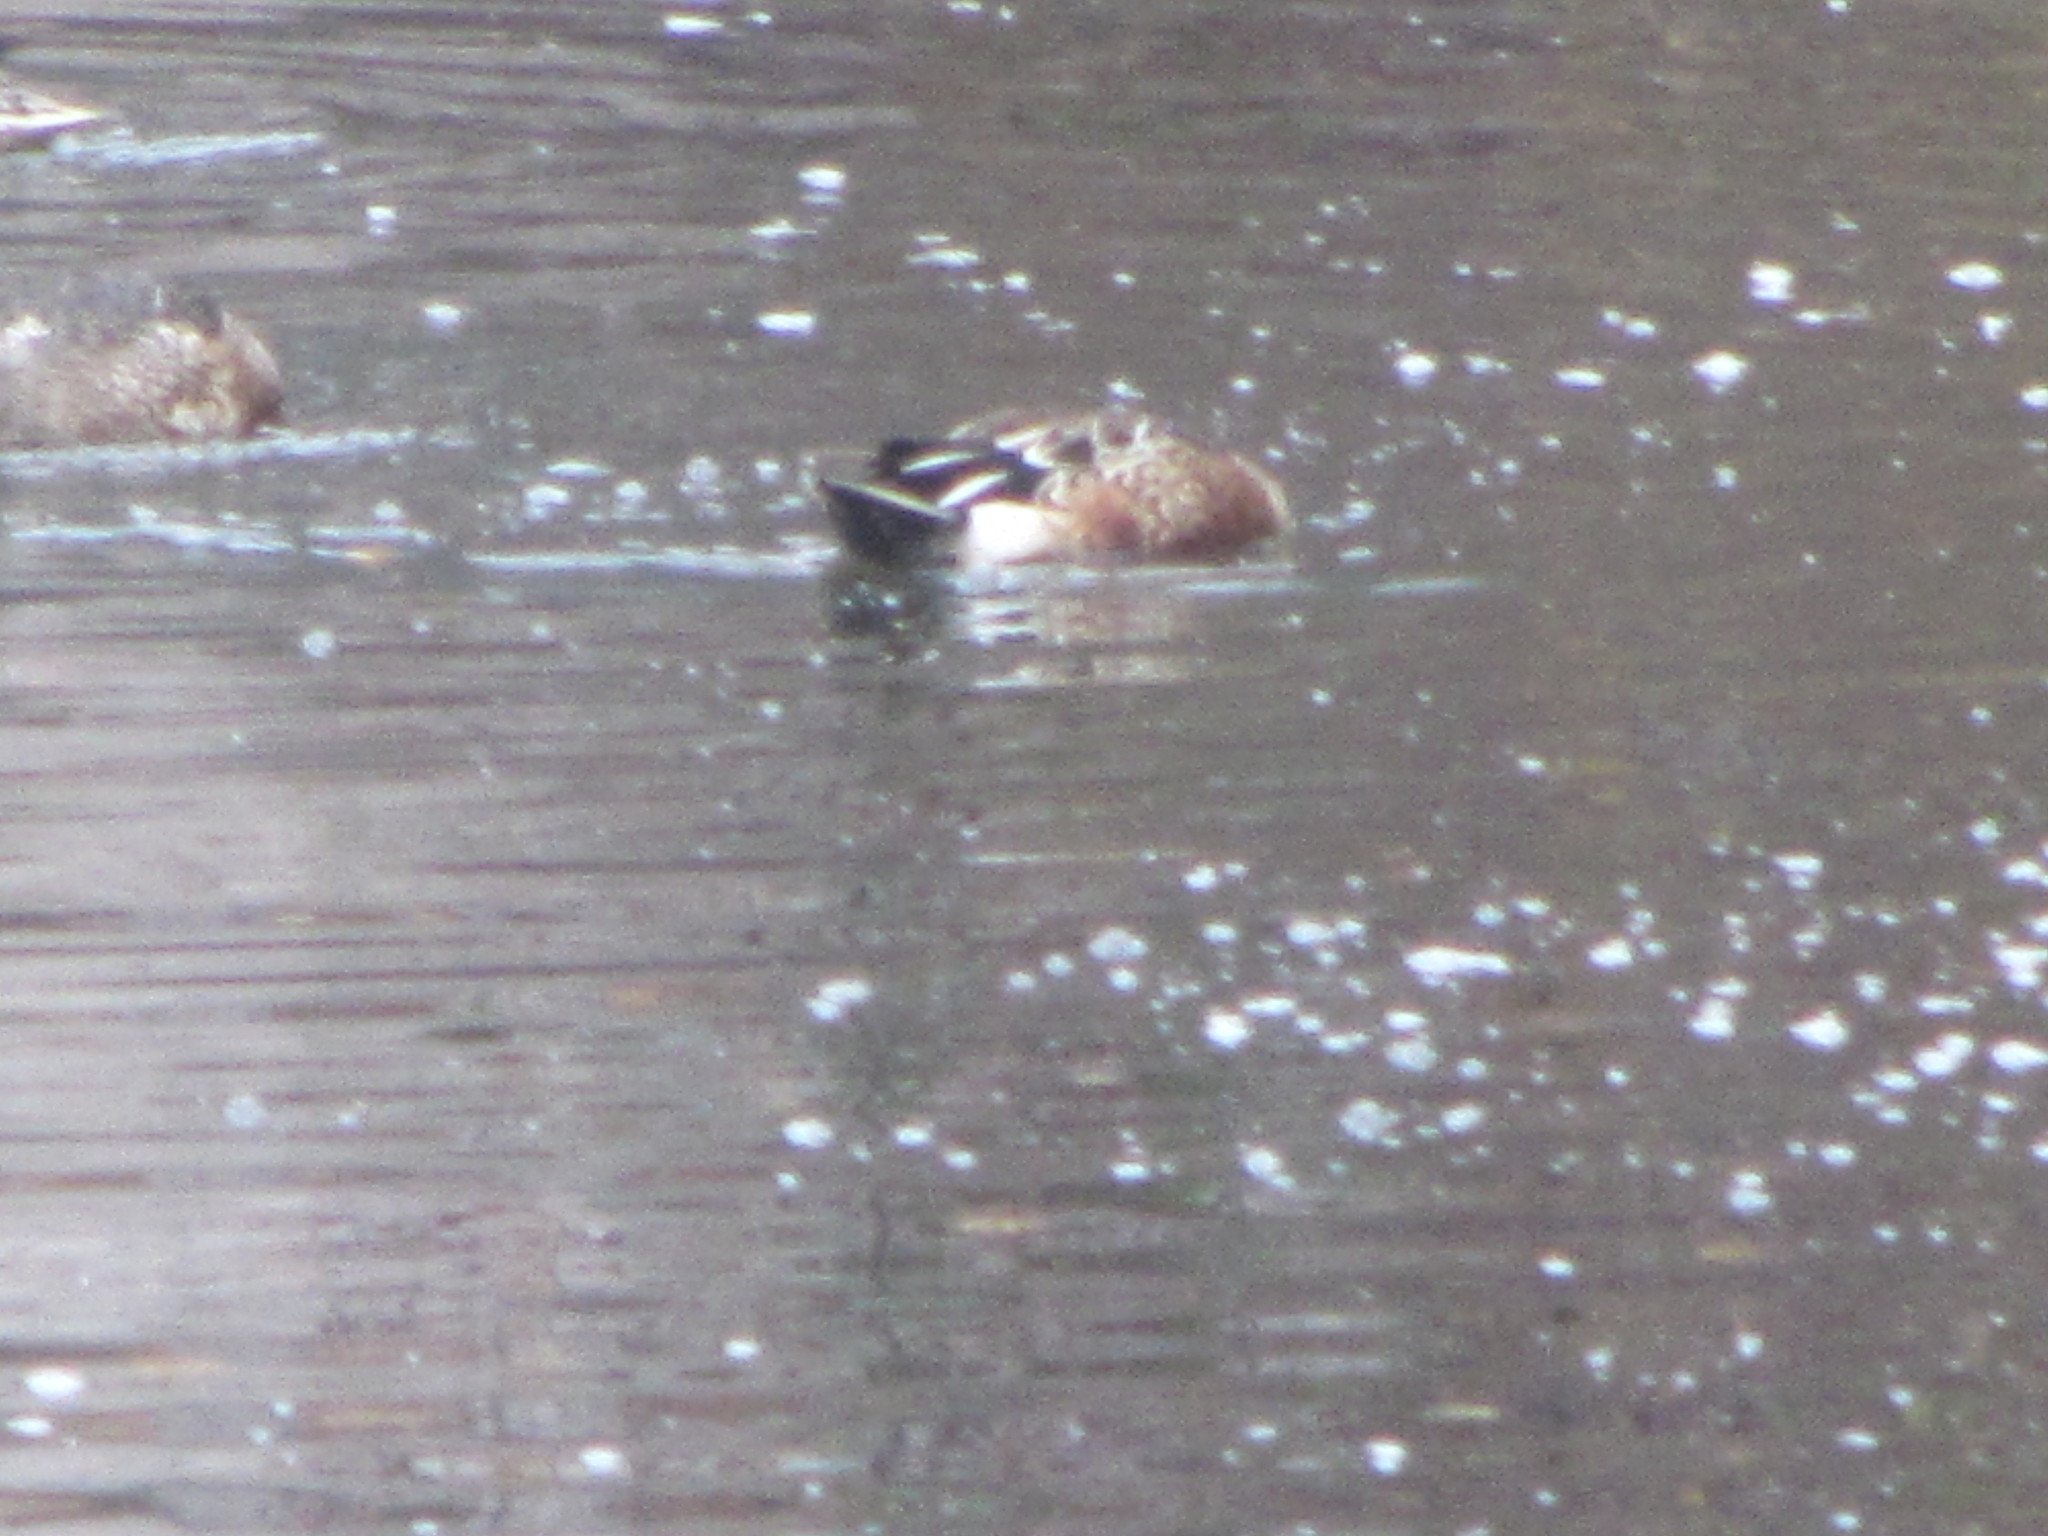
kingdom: Animalia
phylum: Chordata
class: Aves
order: Anseriformes
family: Anatidae
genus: Spatula
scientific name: Spatula clypeata
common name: Northern shoveler
